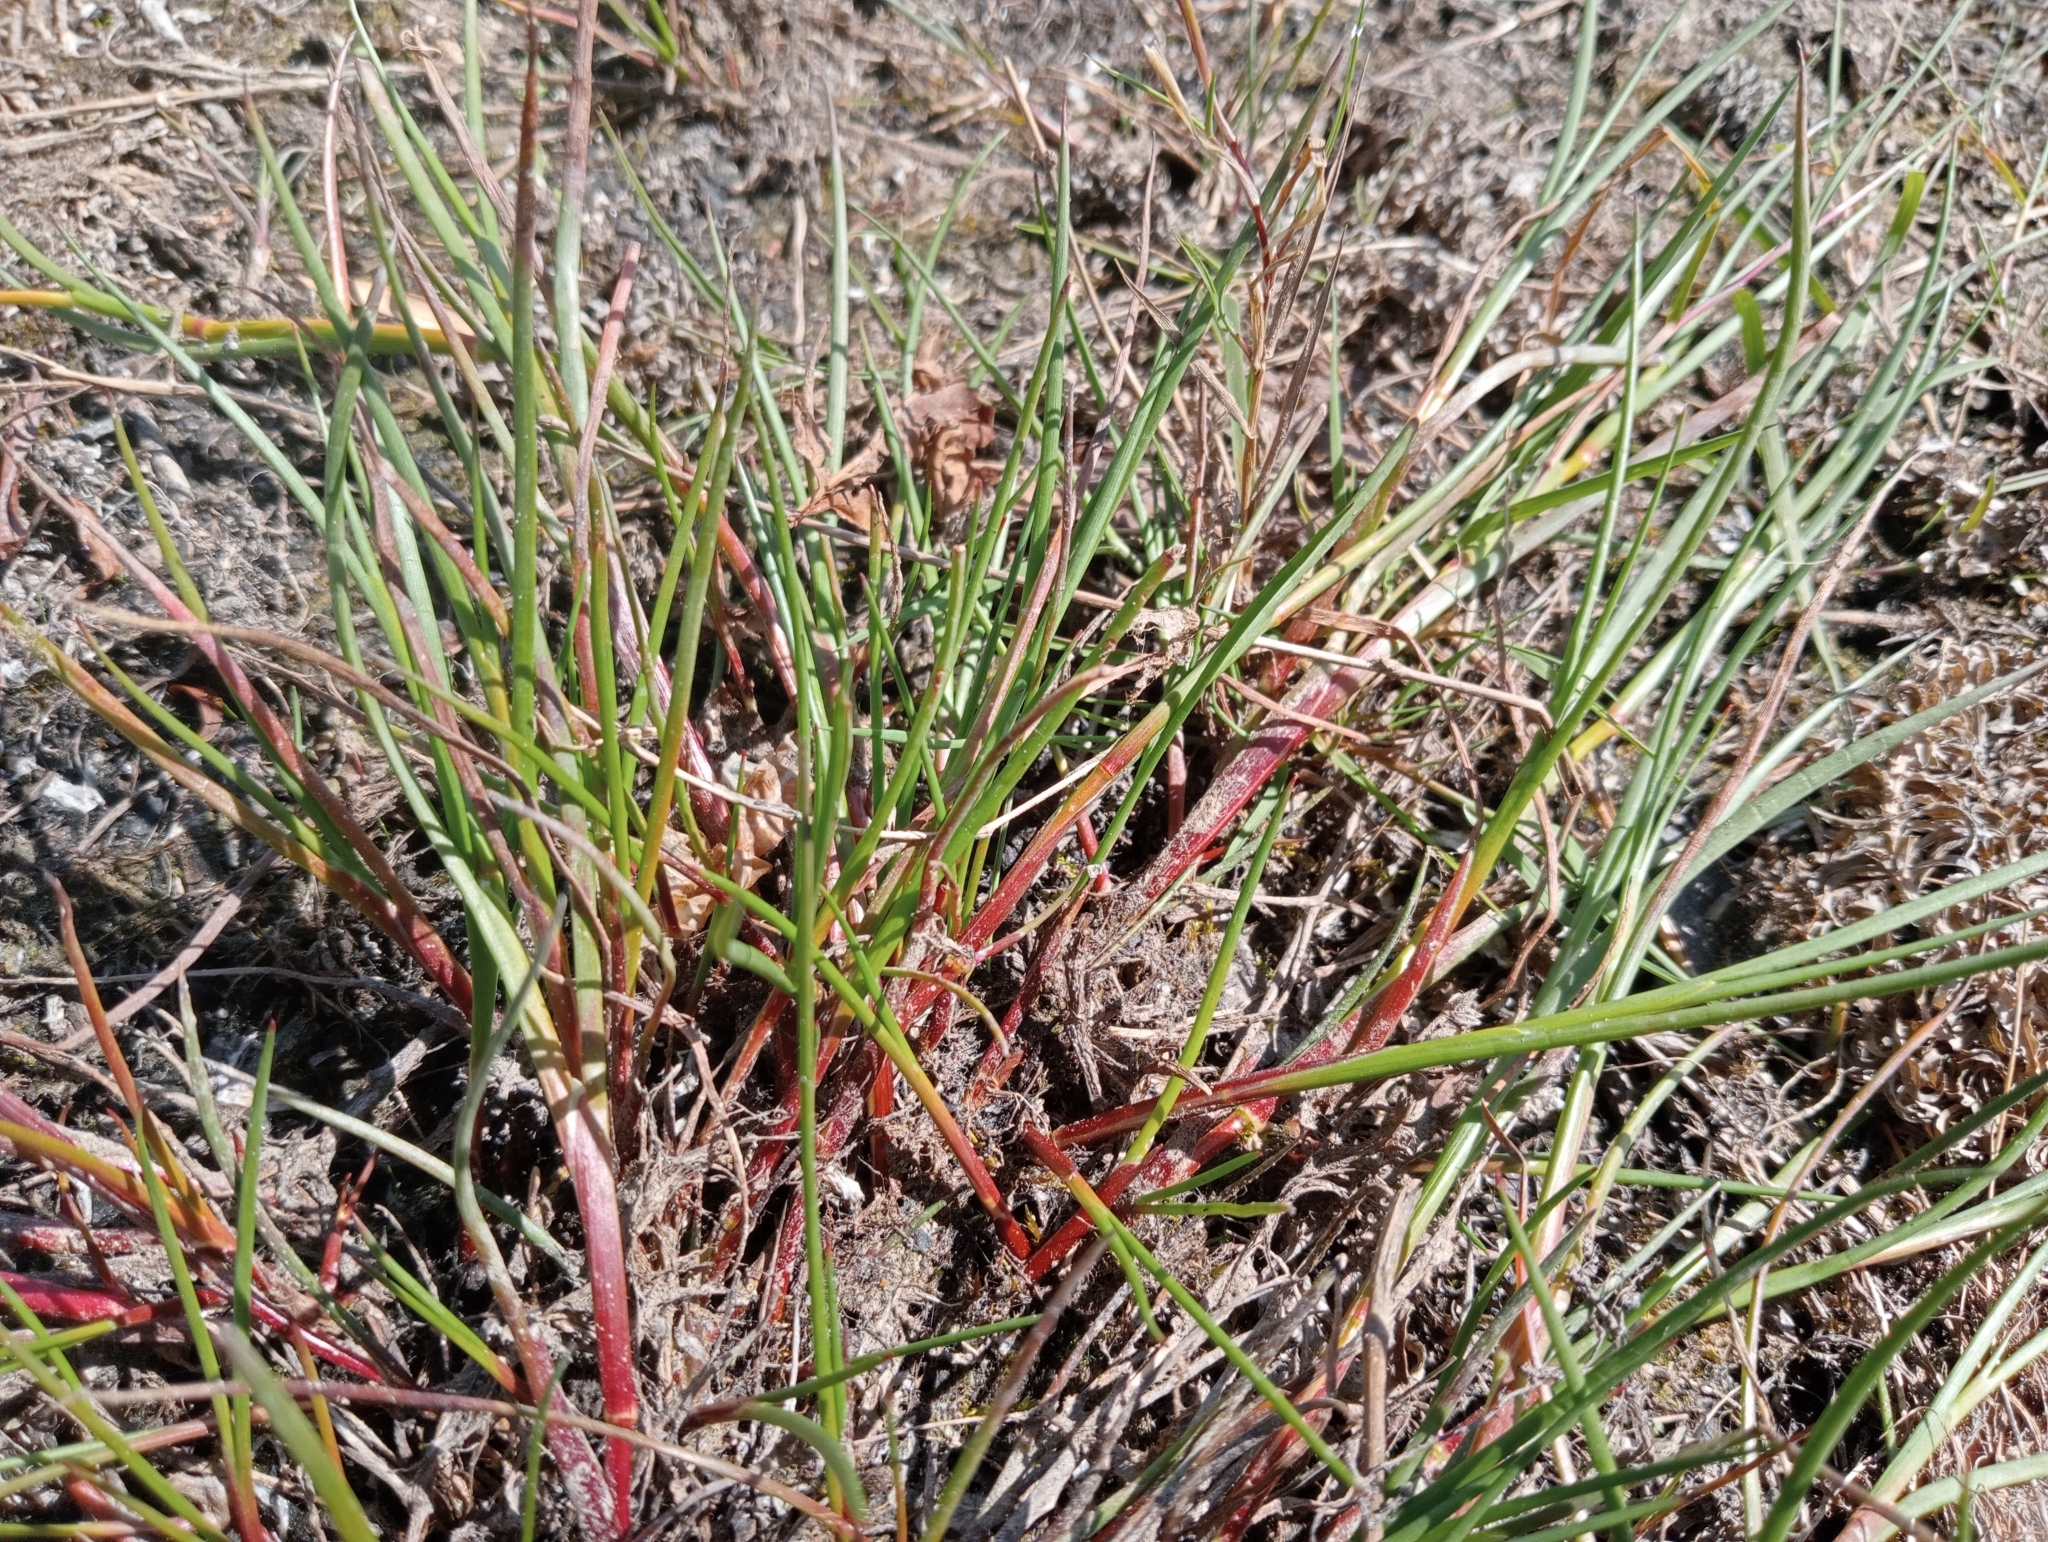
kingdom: Plantae
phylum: Tracheophyta
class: Liliopsida
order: Poales
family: Juncaceae
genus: Juncus
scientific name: Juncus articulatus
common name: Jointed rush
